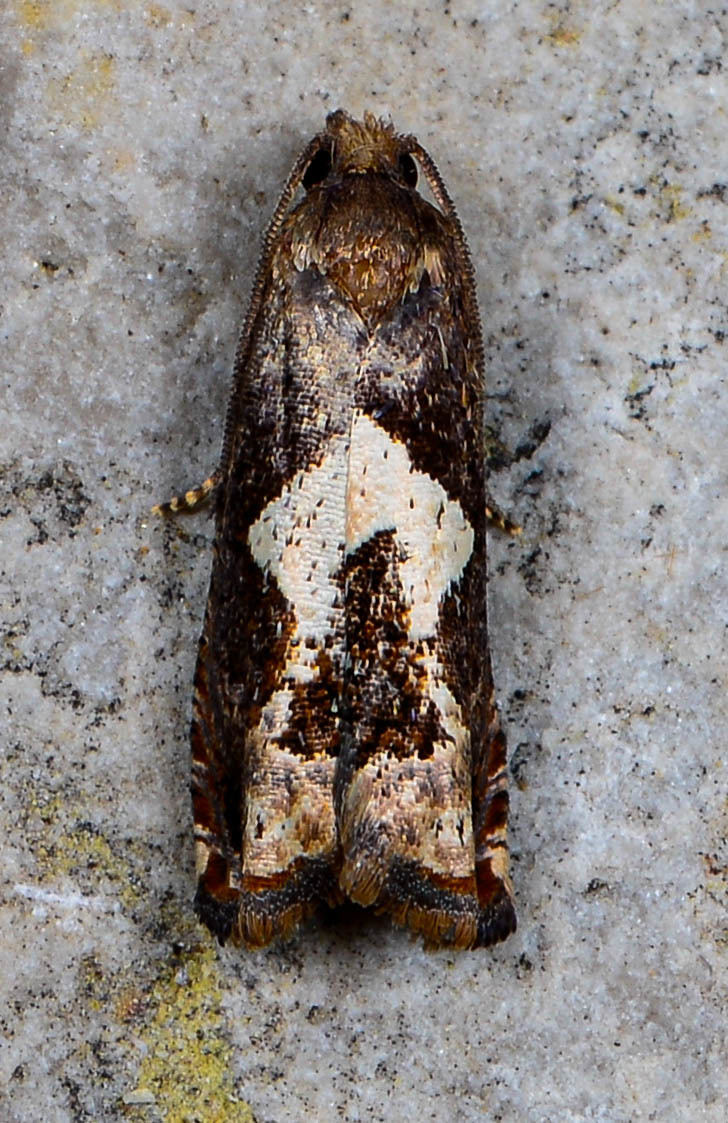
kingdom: Animalia
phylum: Arthropoda
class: Insecta
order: Lepidoptera
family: Tortricidae
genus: Epiblema
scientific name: Epiblema otiosana
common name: Bidens borer moth
